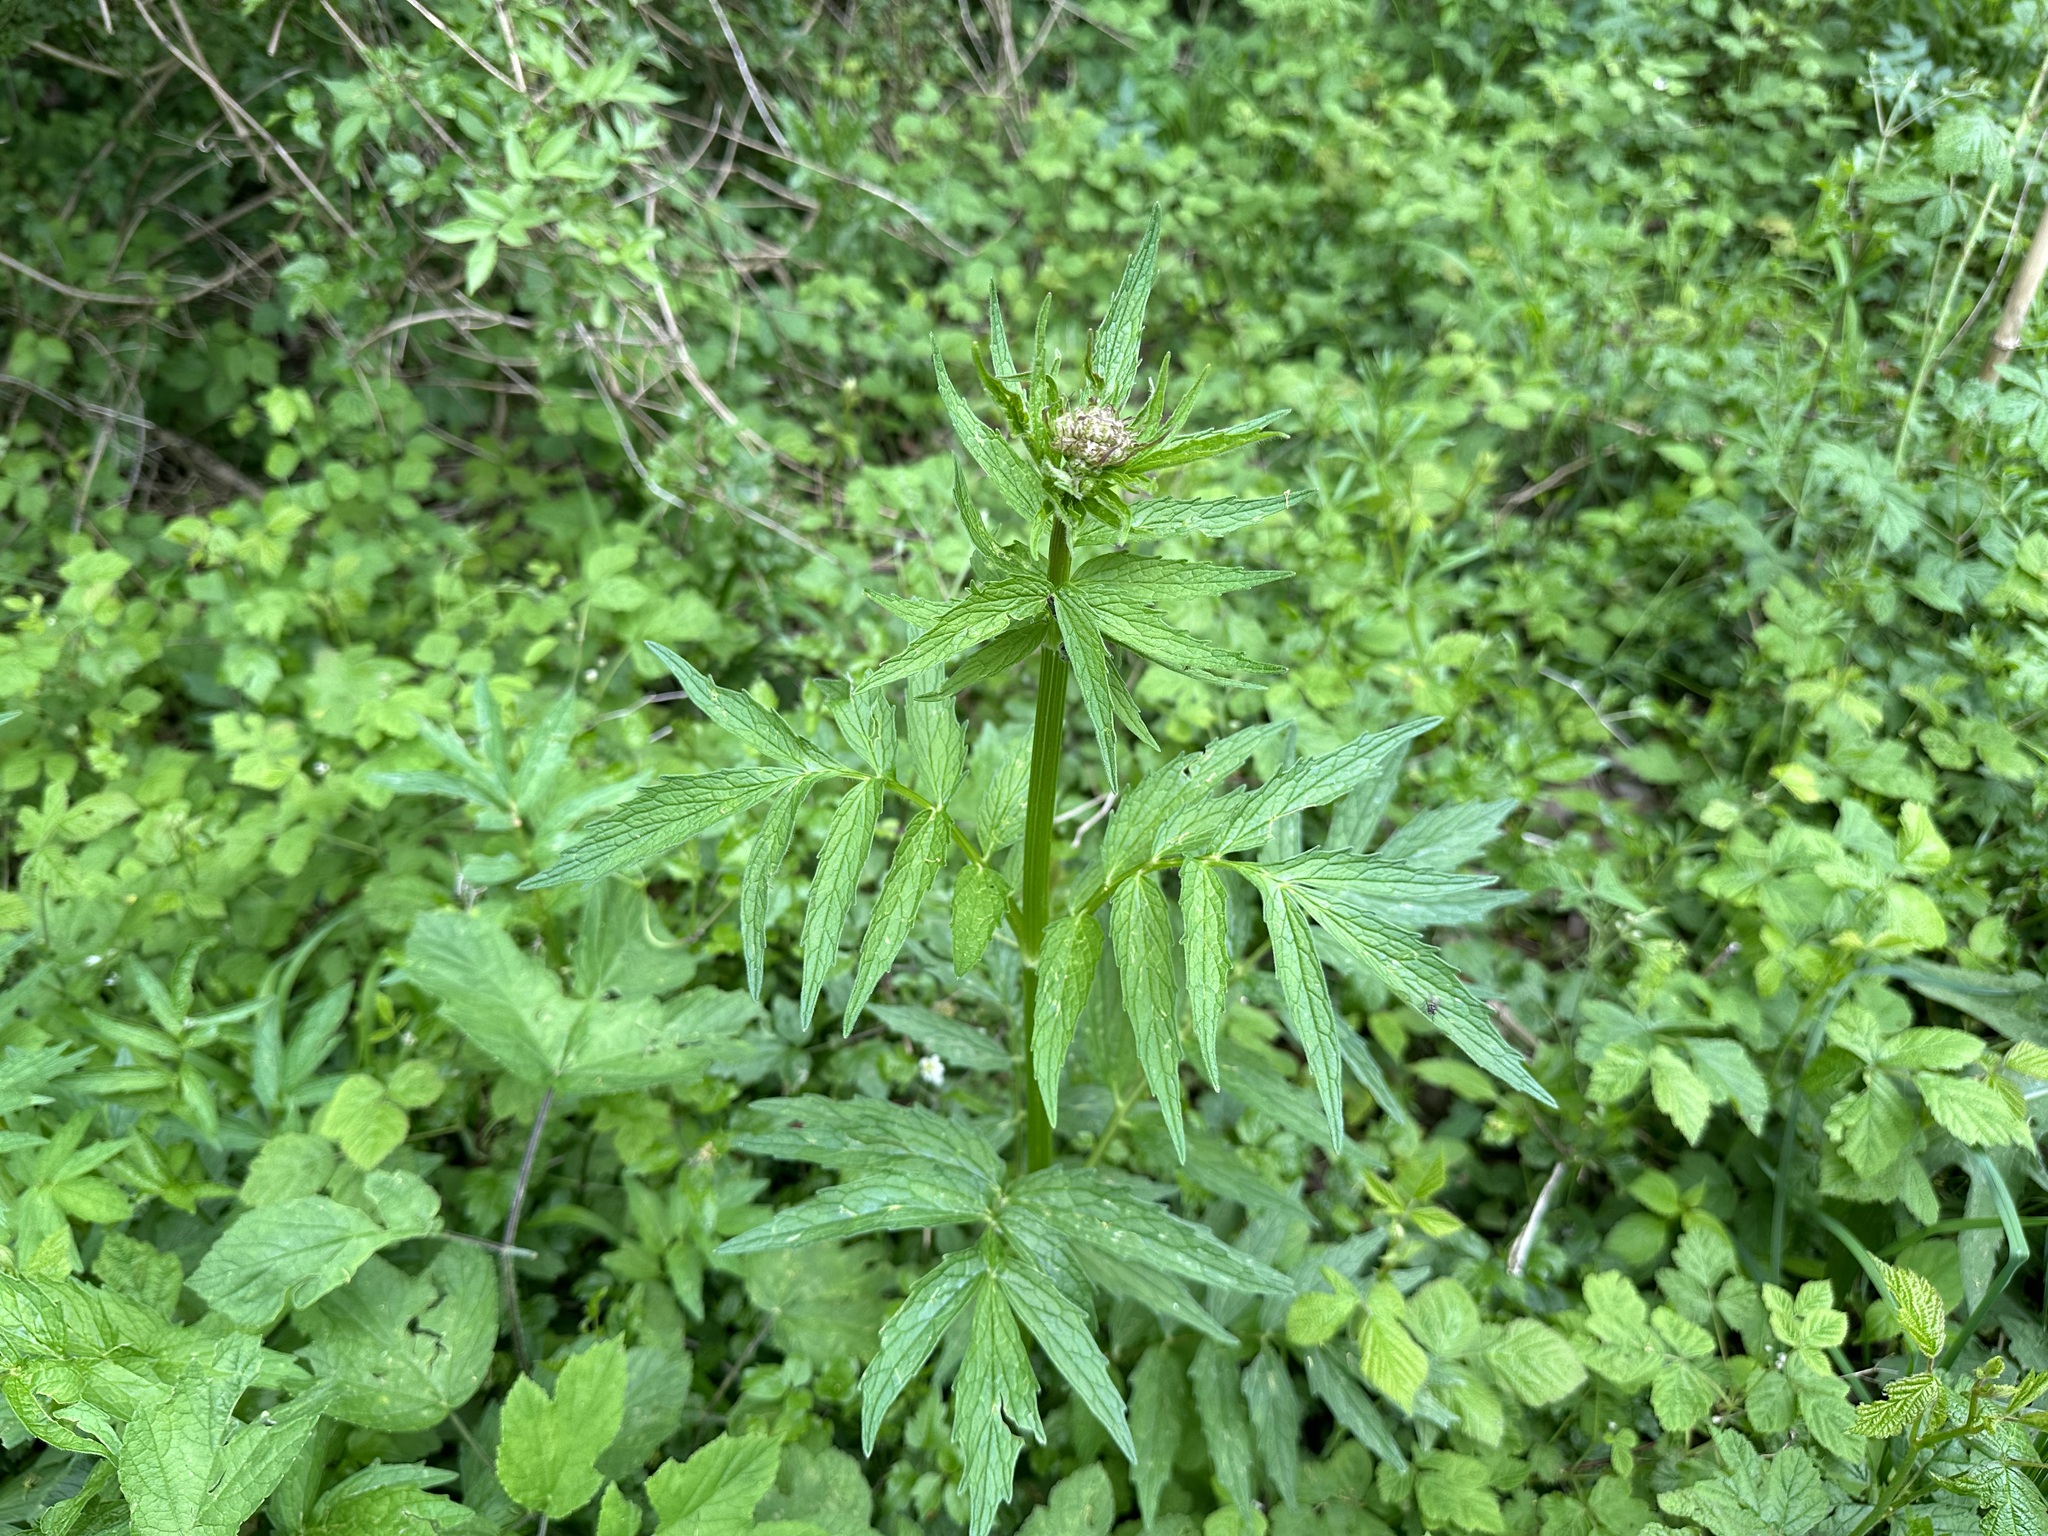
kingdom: Plantae
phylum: Tracheophyta
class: Magnoliopsida
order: Dipsacales
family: Caprifoliaceae
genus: Valeriana
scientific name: Valeriana officinalis
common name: Common valerian
